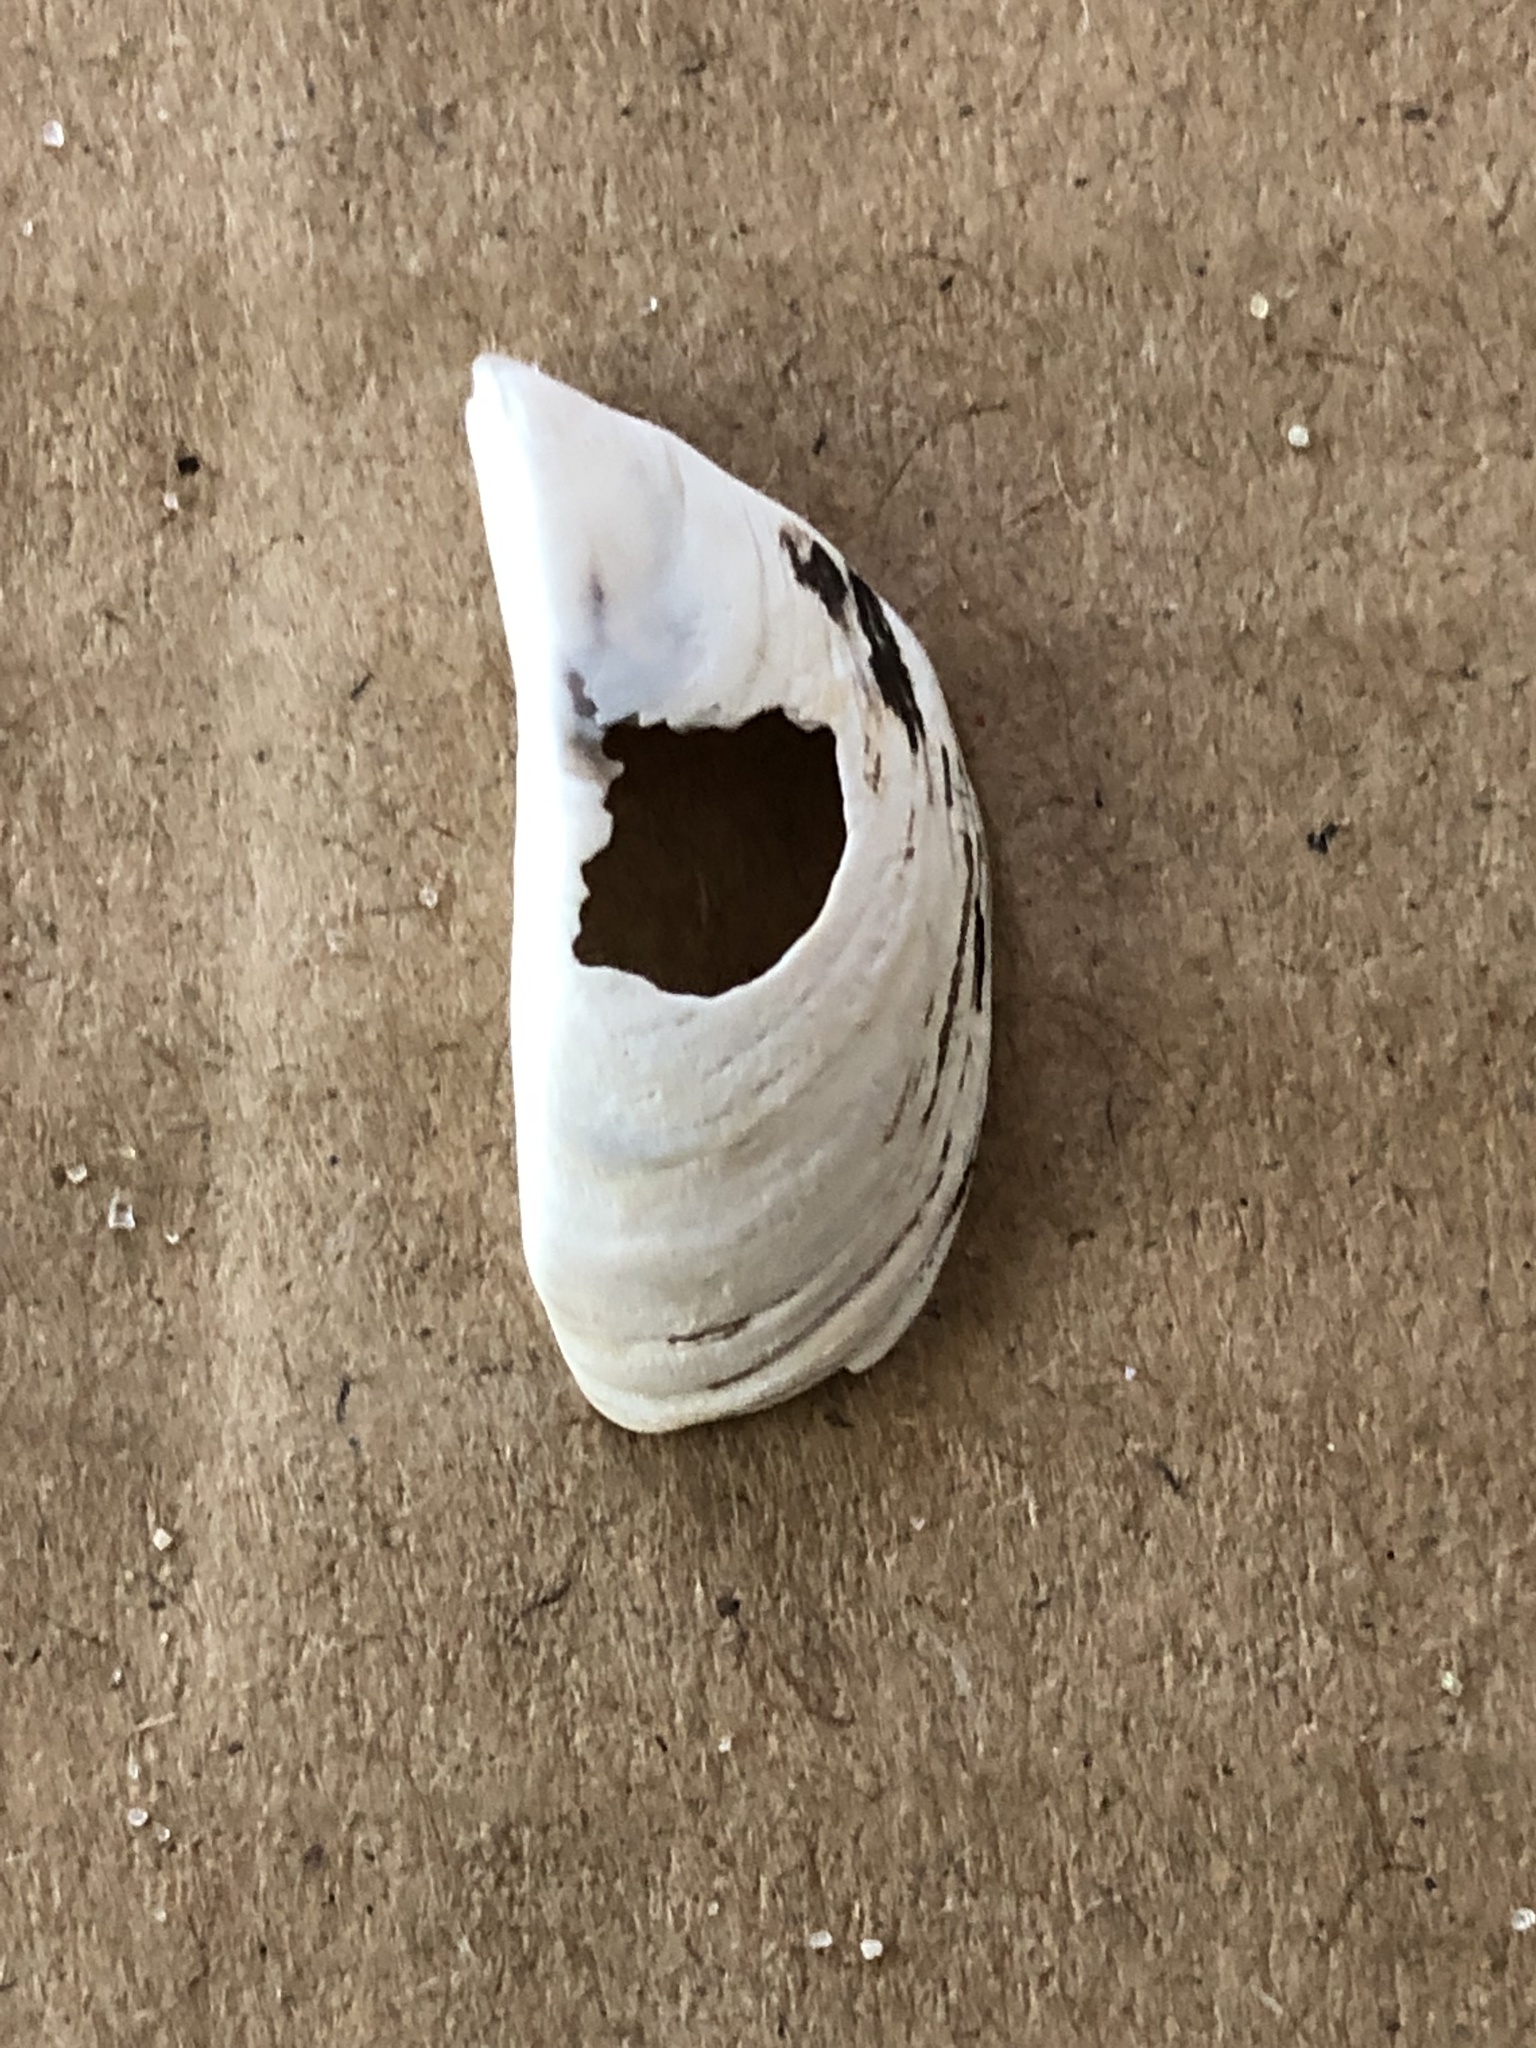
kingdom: Animalia
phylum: Mollusca
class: Bivalvia
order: Myida
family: Dreissenidae
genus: Dreissena
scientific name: Dreissena polymorpha
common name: Zebra mussel
